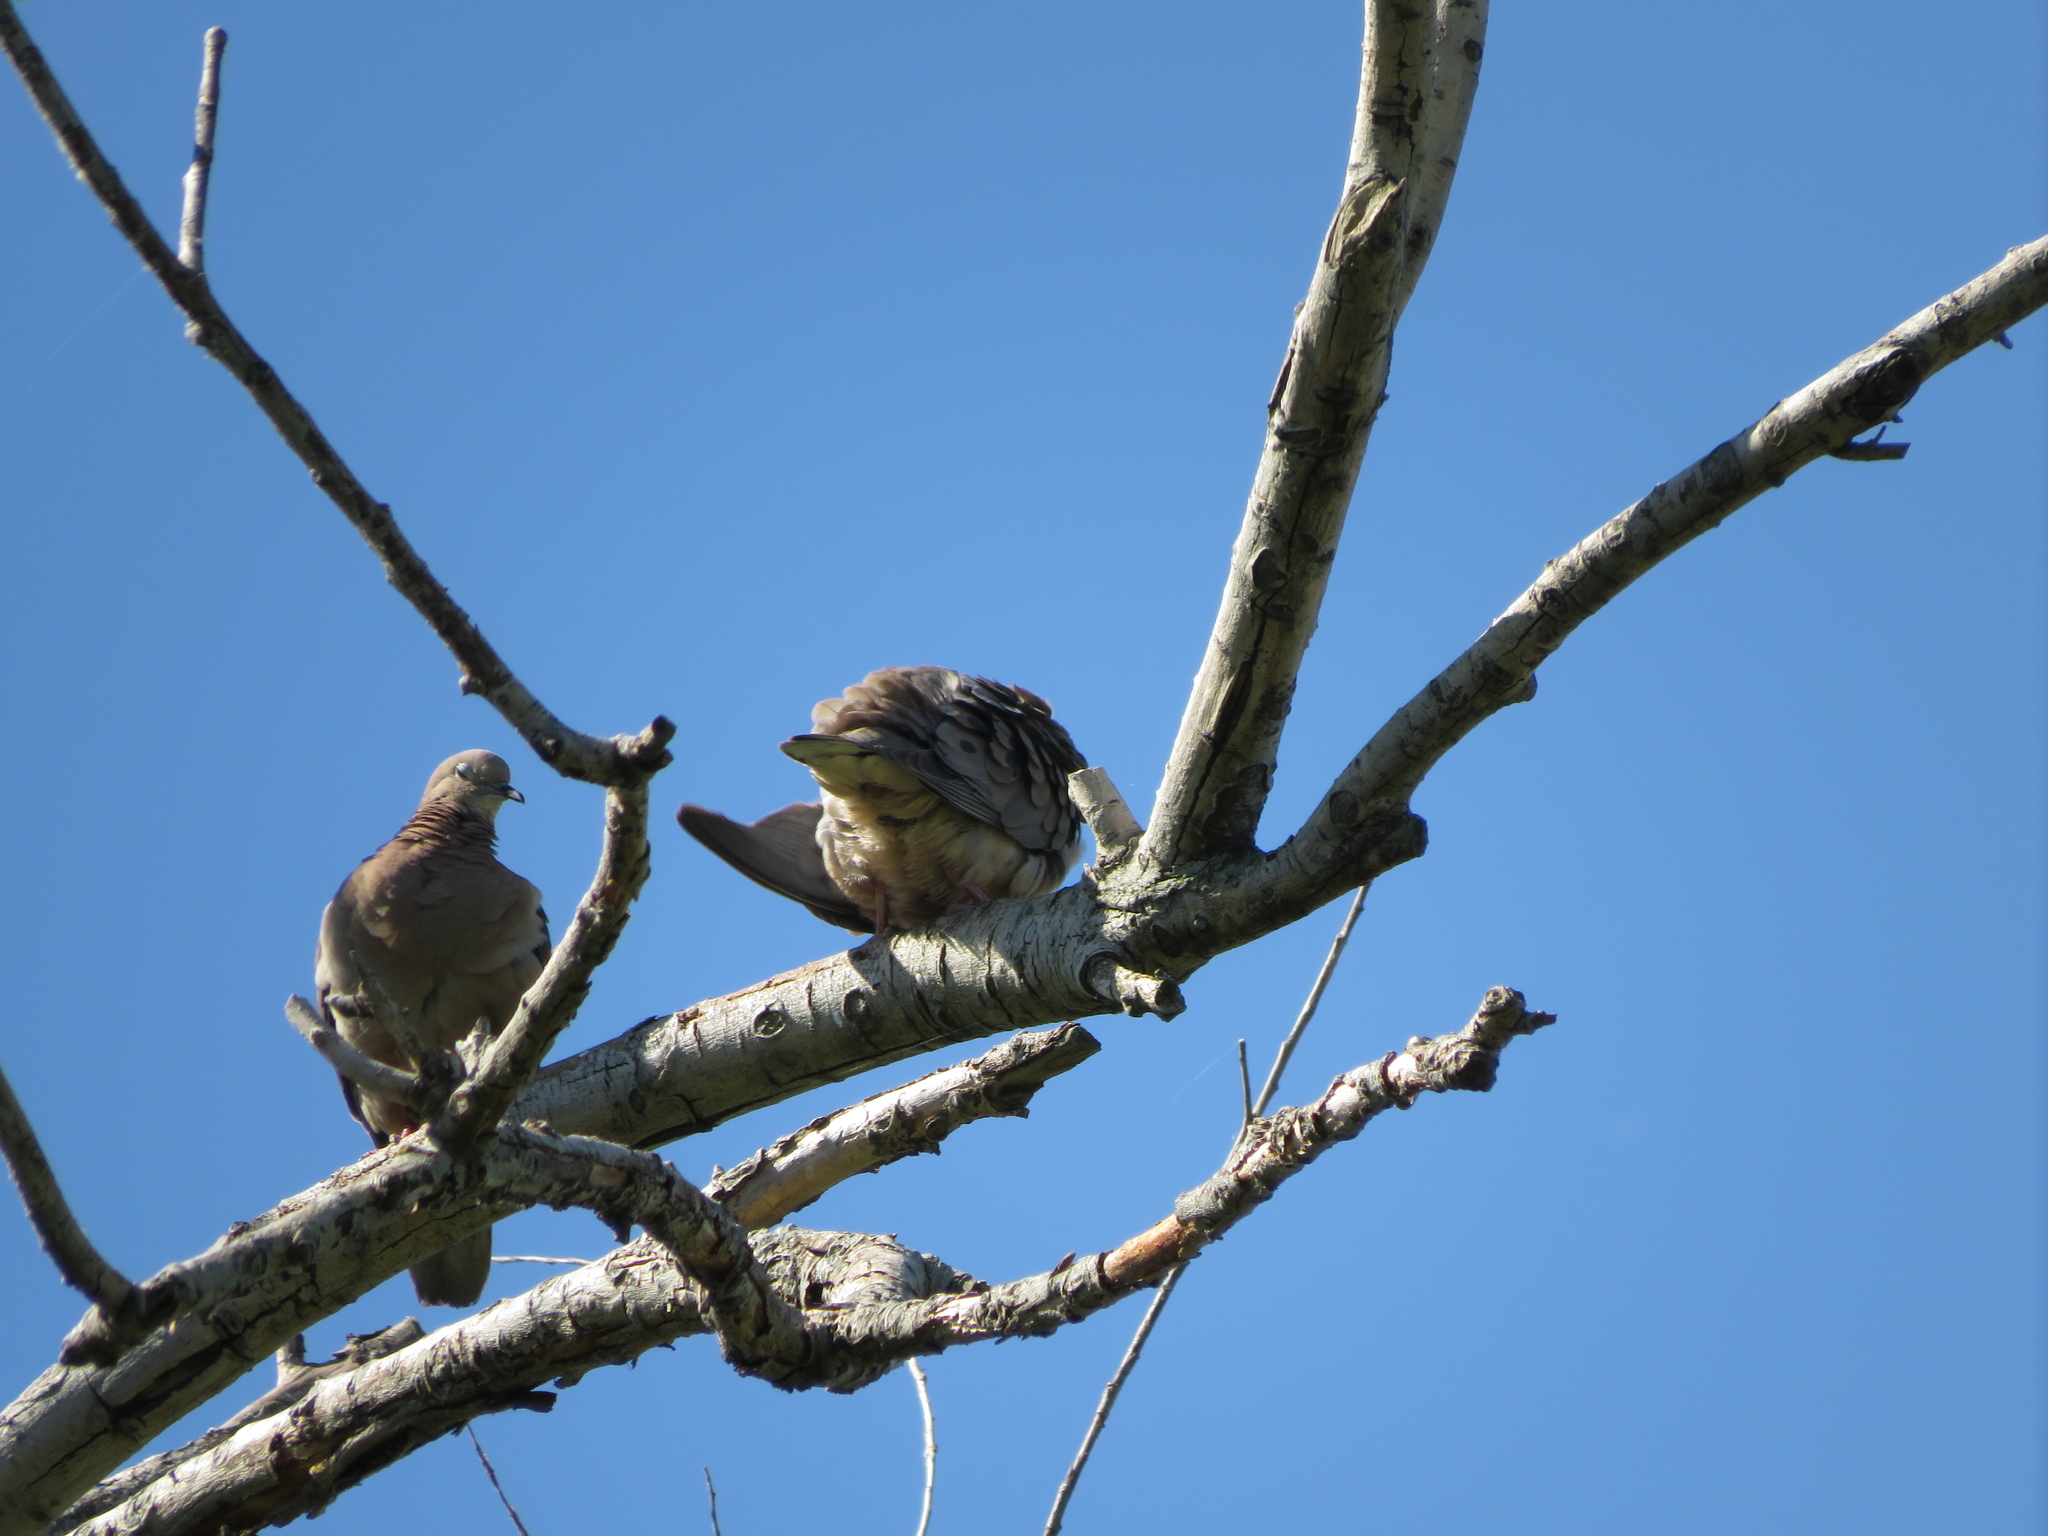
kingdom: Animalia
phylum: Chordata
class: Aves
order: Columbiformes
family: Columbidae
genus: Zenaida
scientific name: Zenaida auriculata
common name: Eared dove
